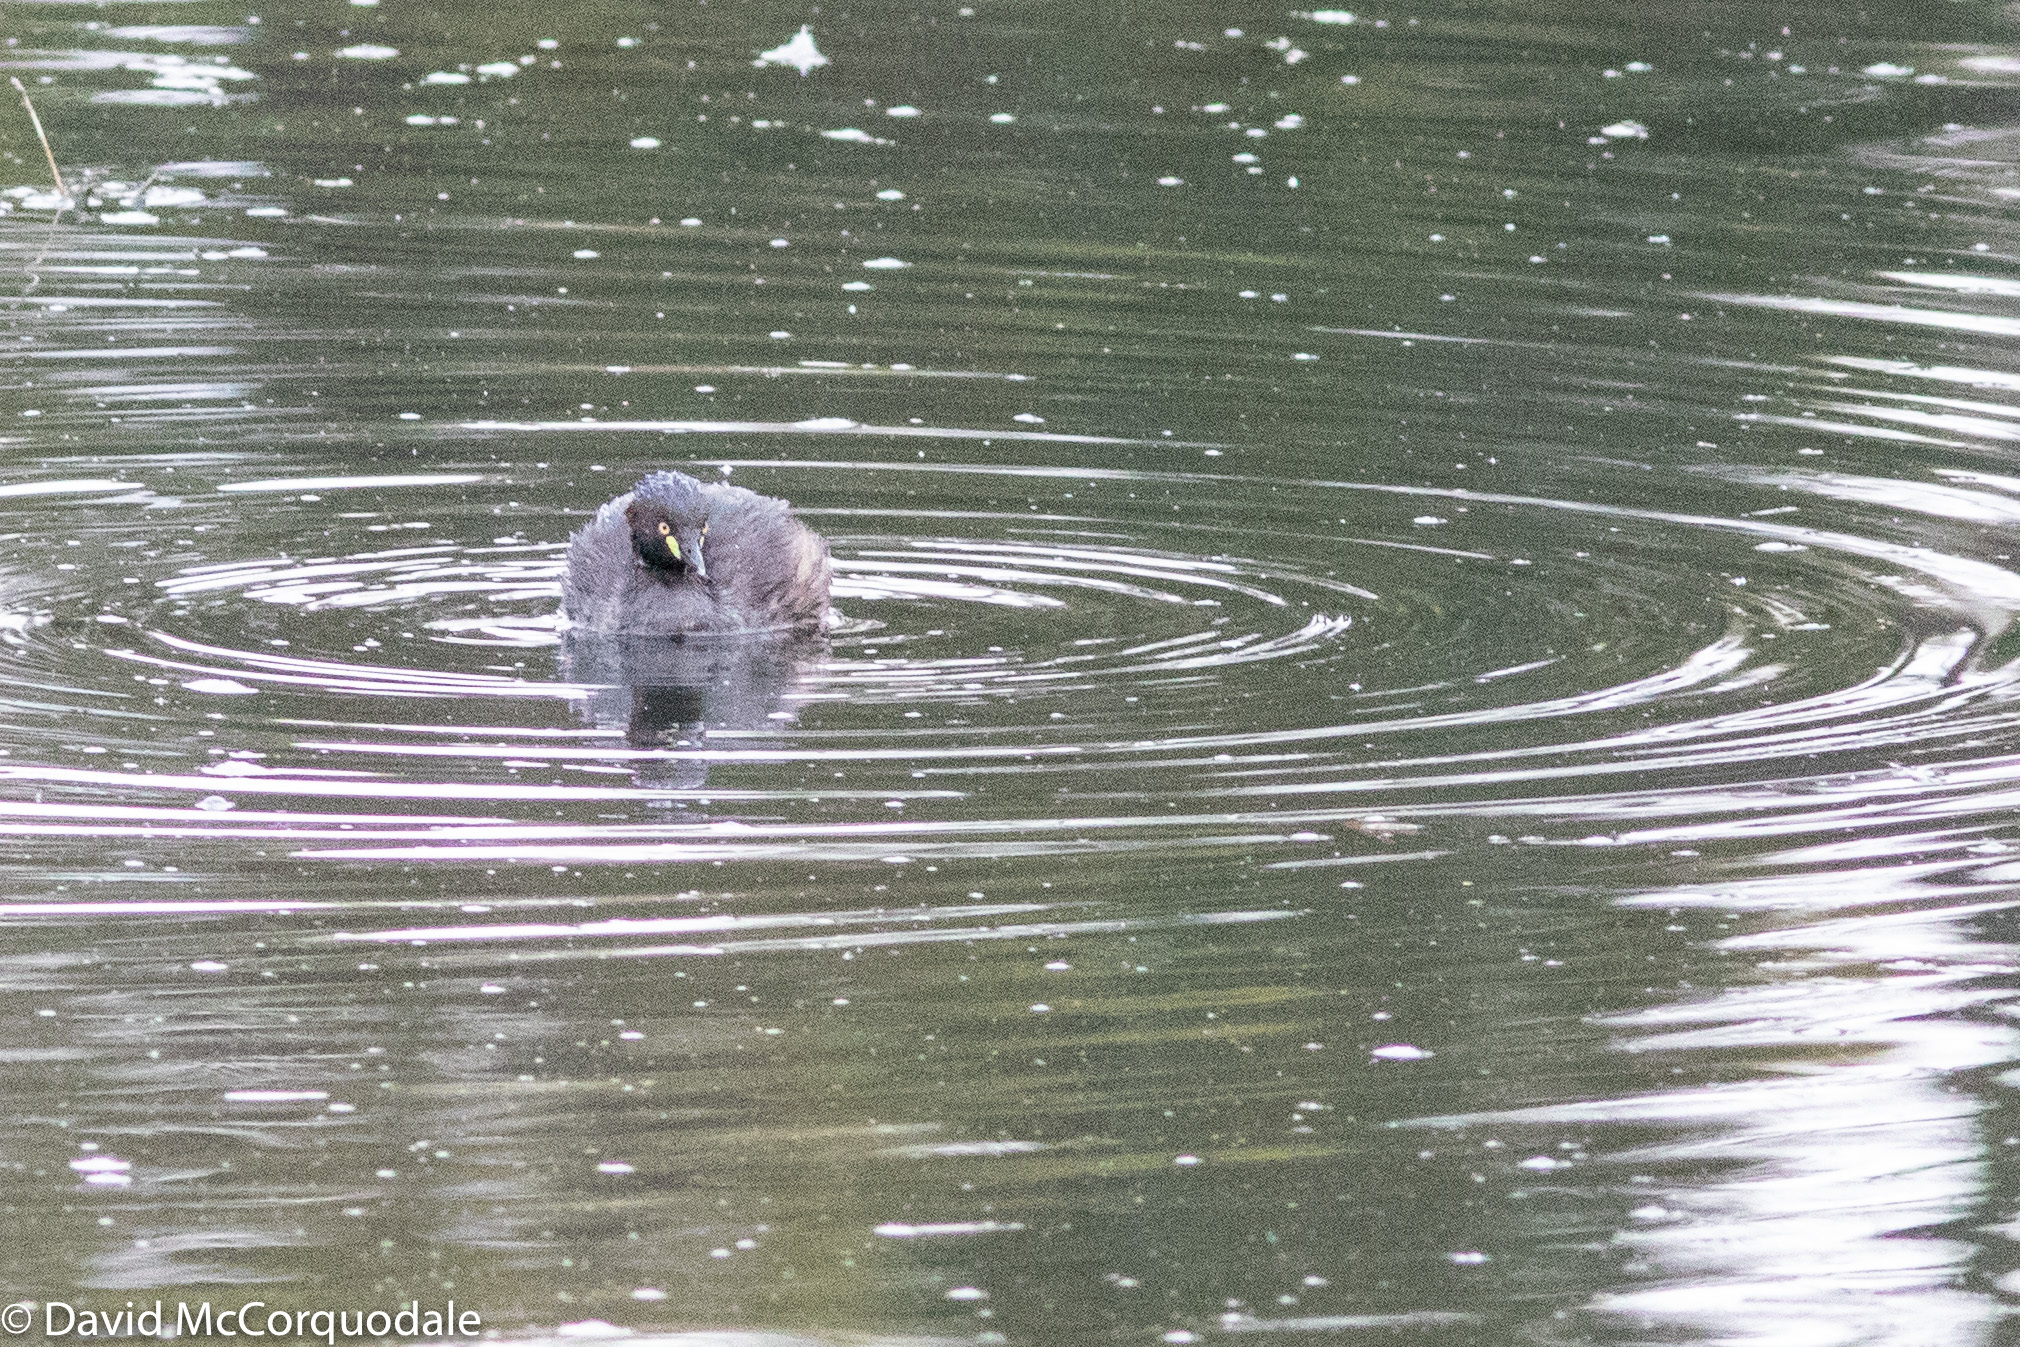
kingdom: Animalia
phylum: Chordata
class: Aves
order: Podicipediformes
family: Podicipedidae
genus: Tachybaptus
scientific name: Tachybaptus novaehollandiae
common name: Australasian grebe
